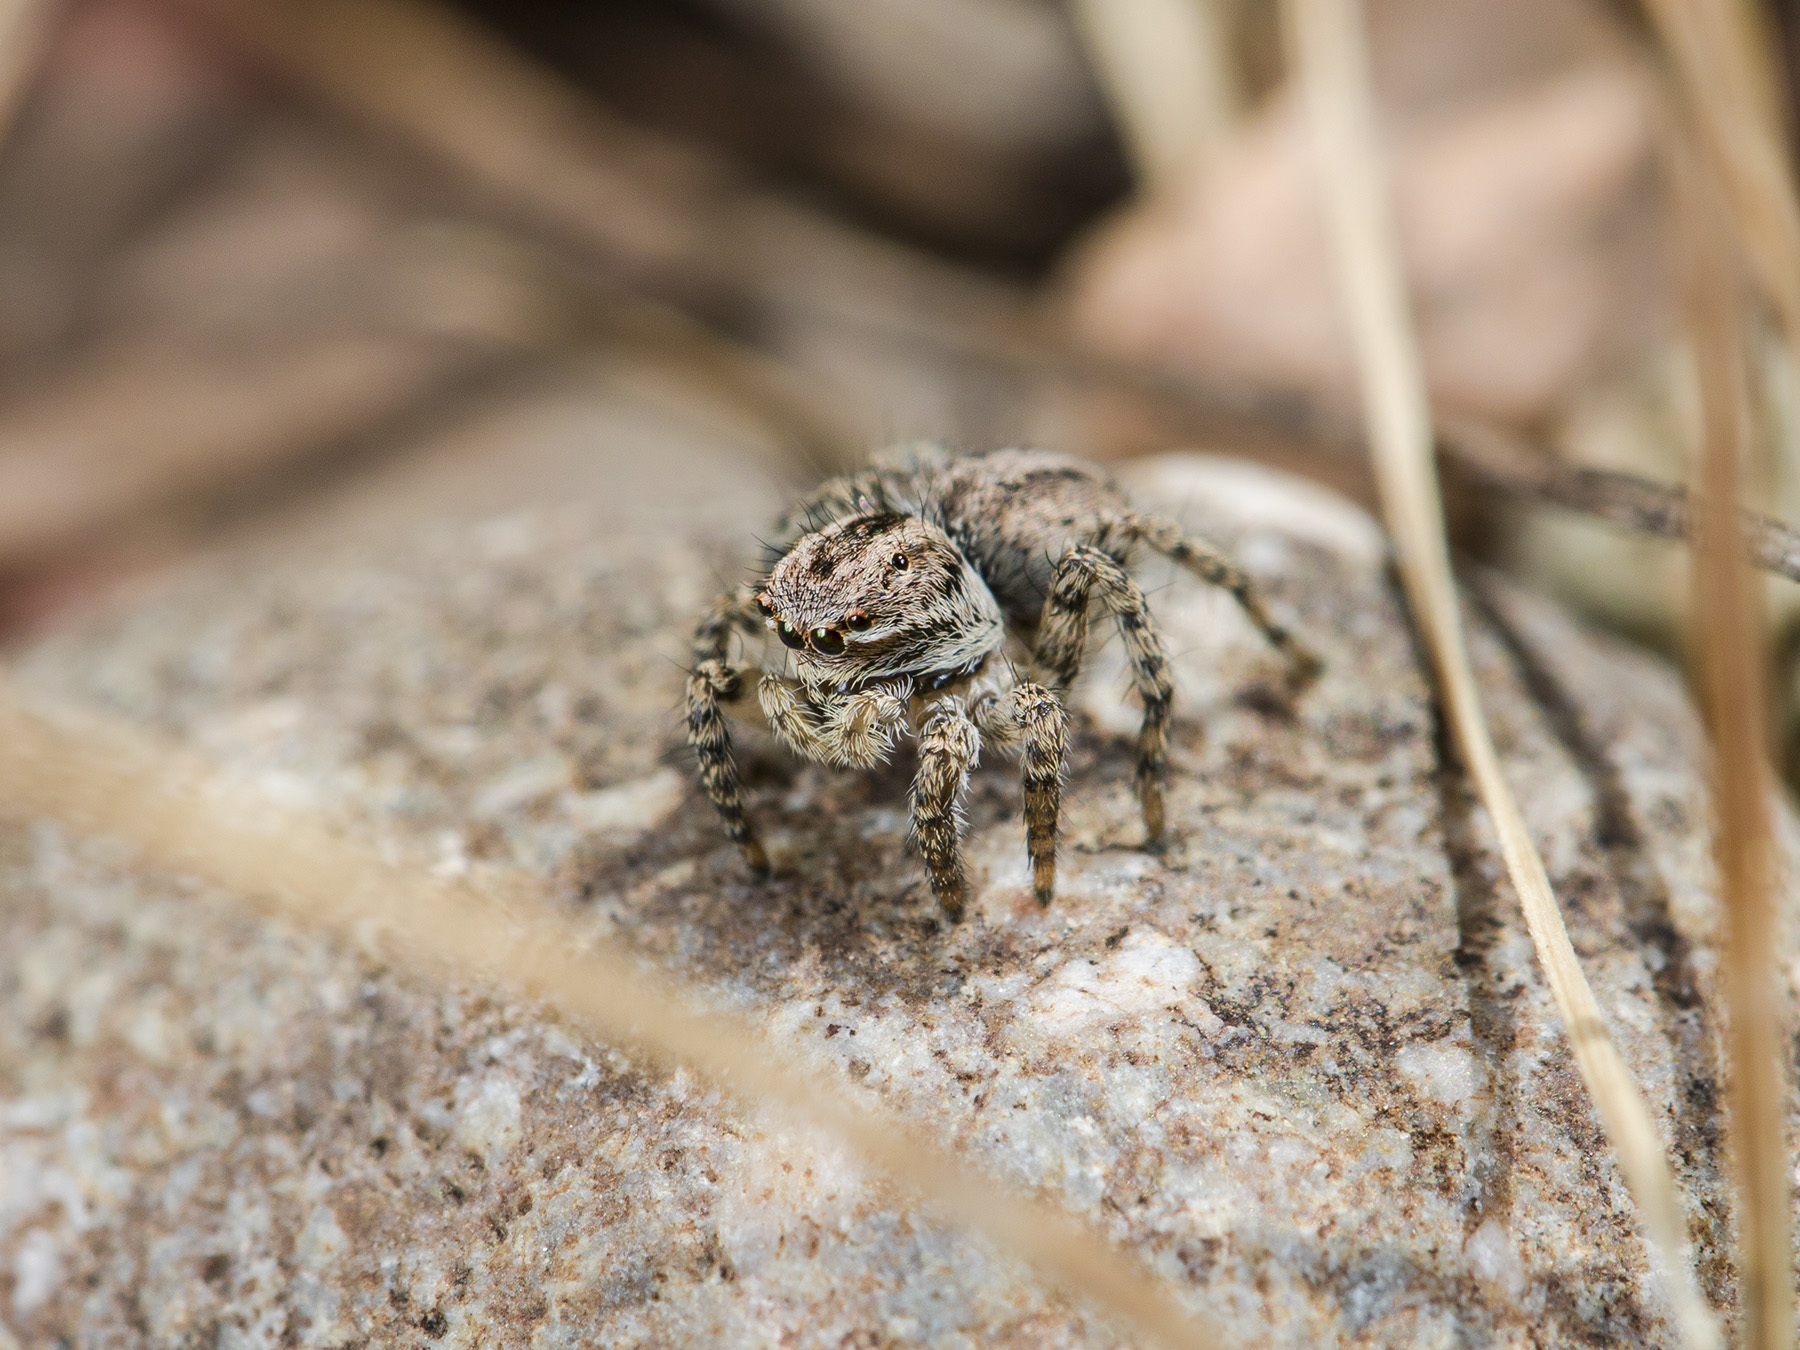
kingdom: Animalia
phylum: Arthropoda
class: Arachnida
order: Araneae
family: Salticidae
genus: Aelurillus
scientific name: Aelurillus v-insignitus
